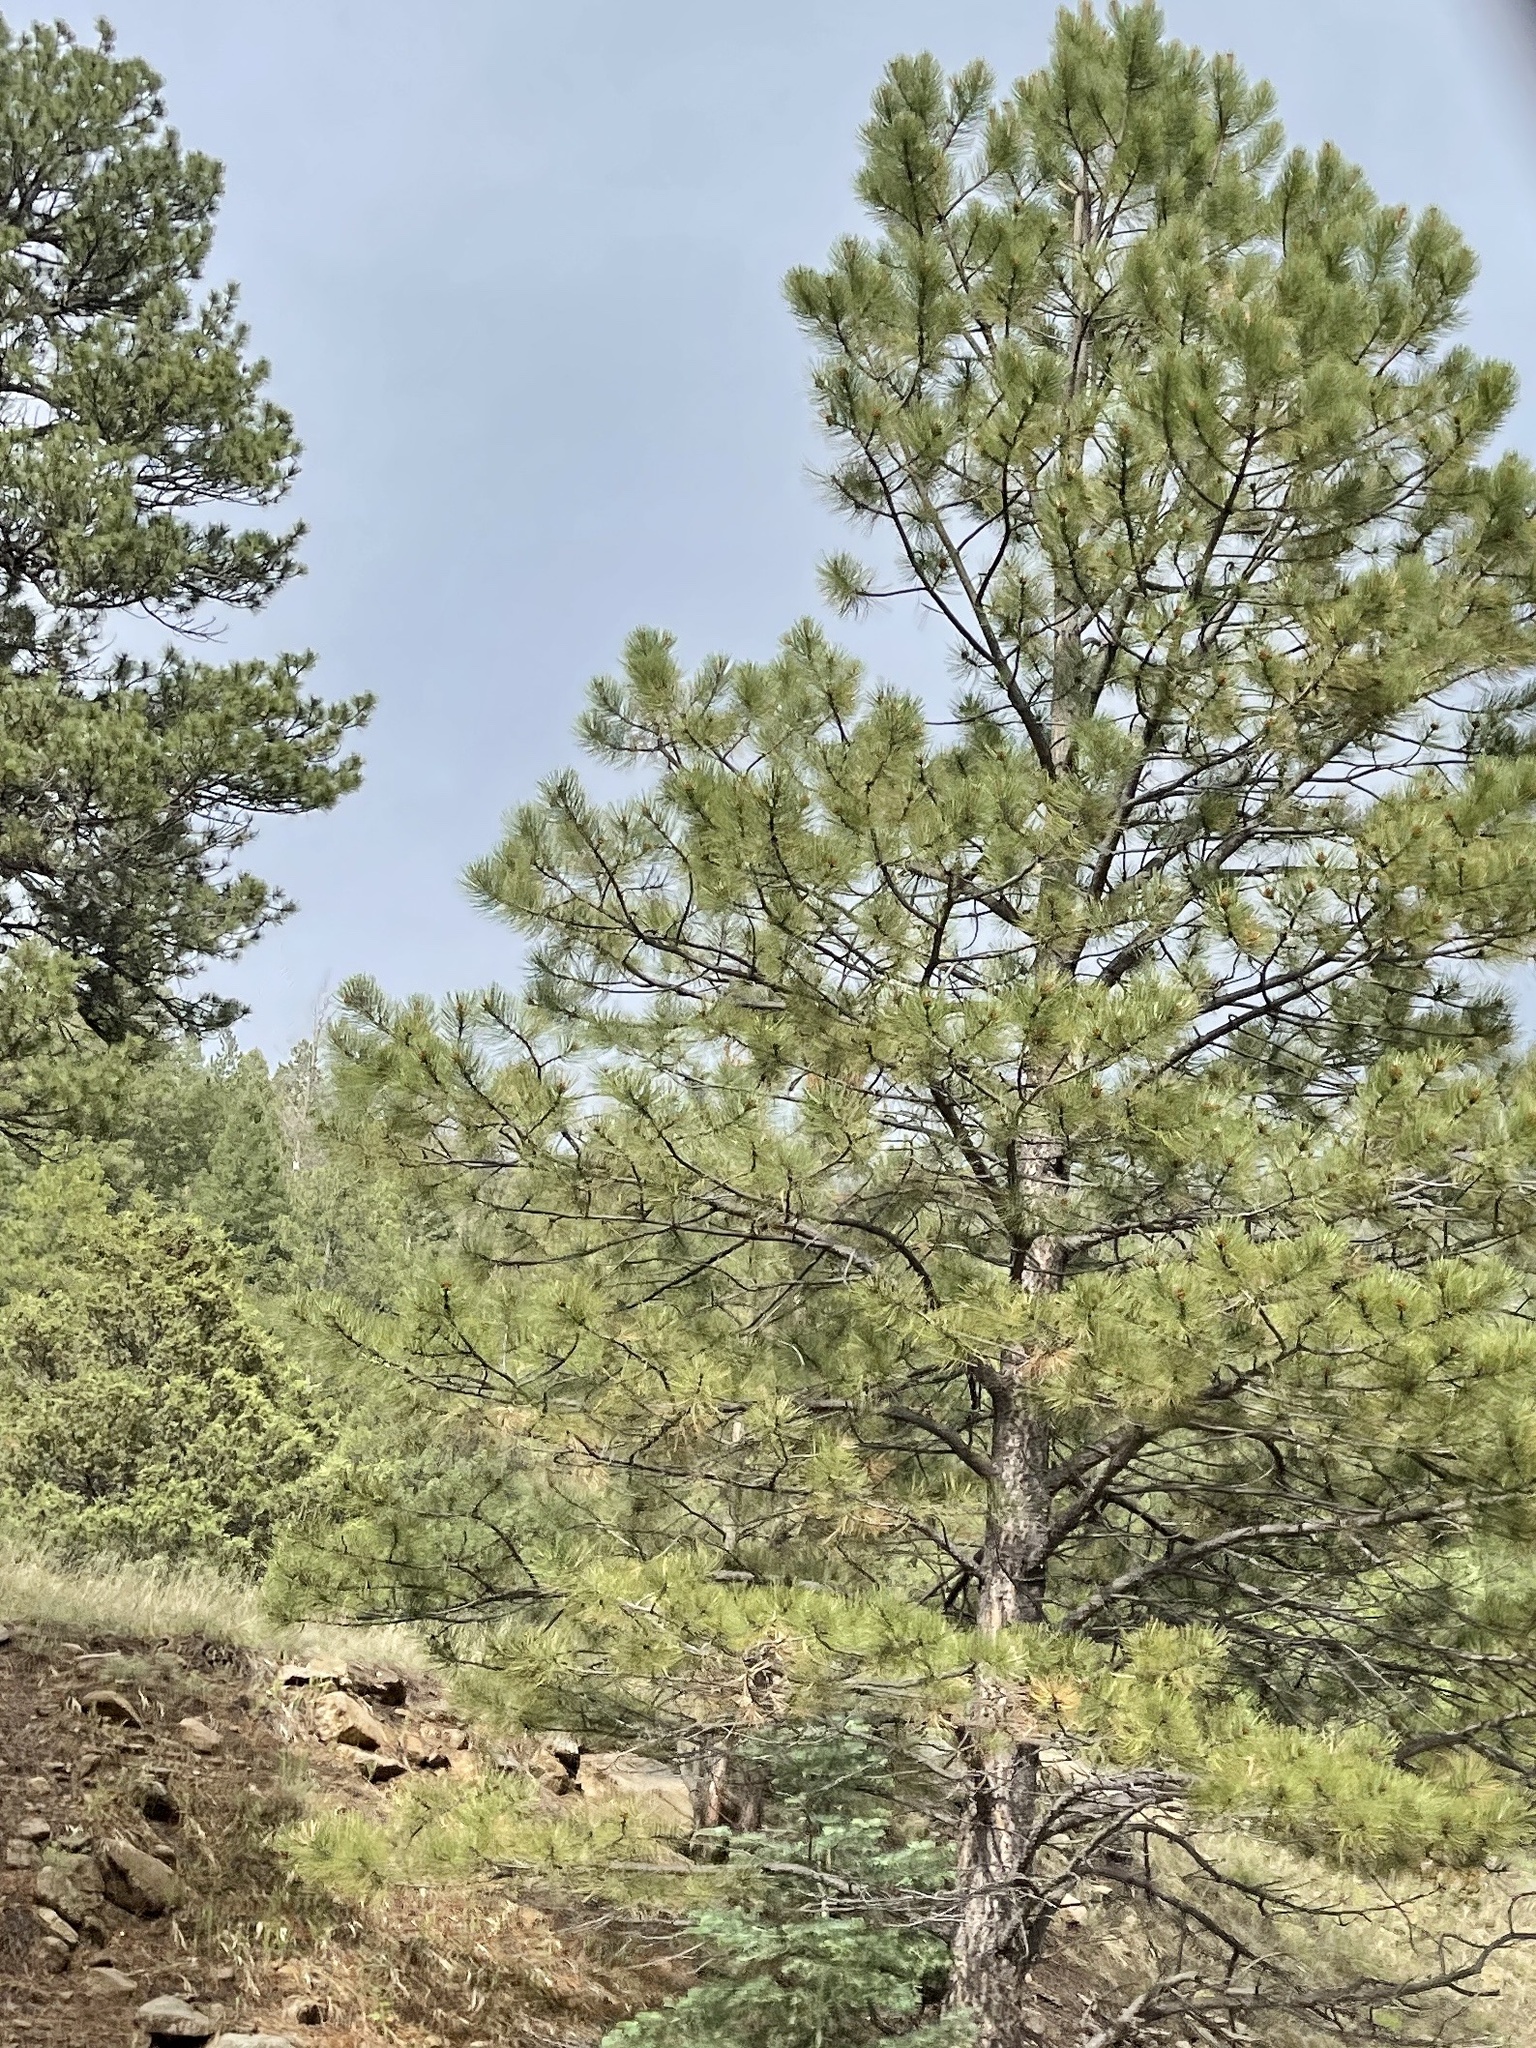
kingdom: Plantae
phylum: Tracheophyta
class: Pinopsida
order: Pinales
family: Pinaceae
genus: Pinus
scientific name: Pinus ponderosa
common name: Western yellow-pine
